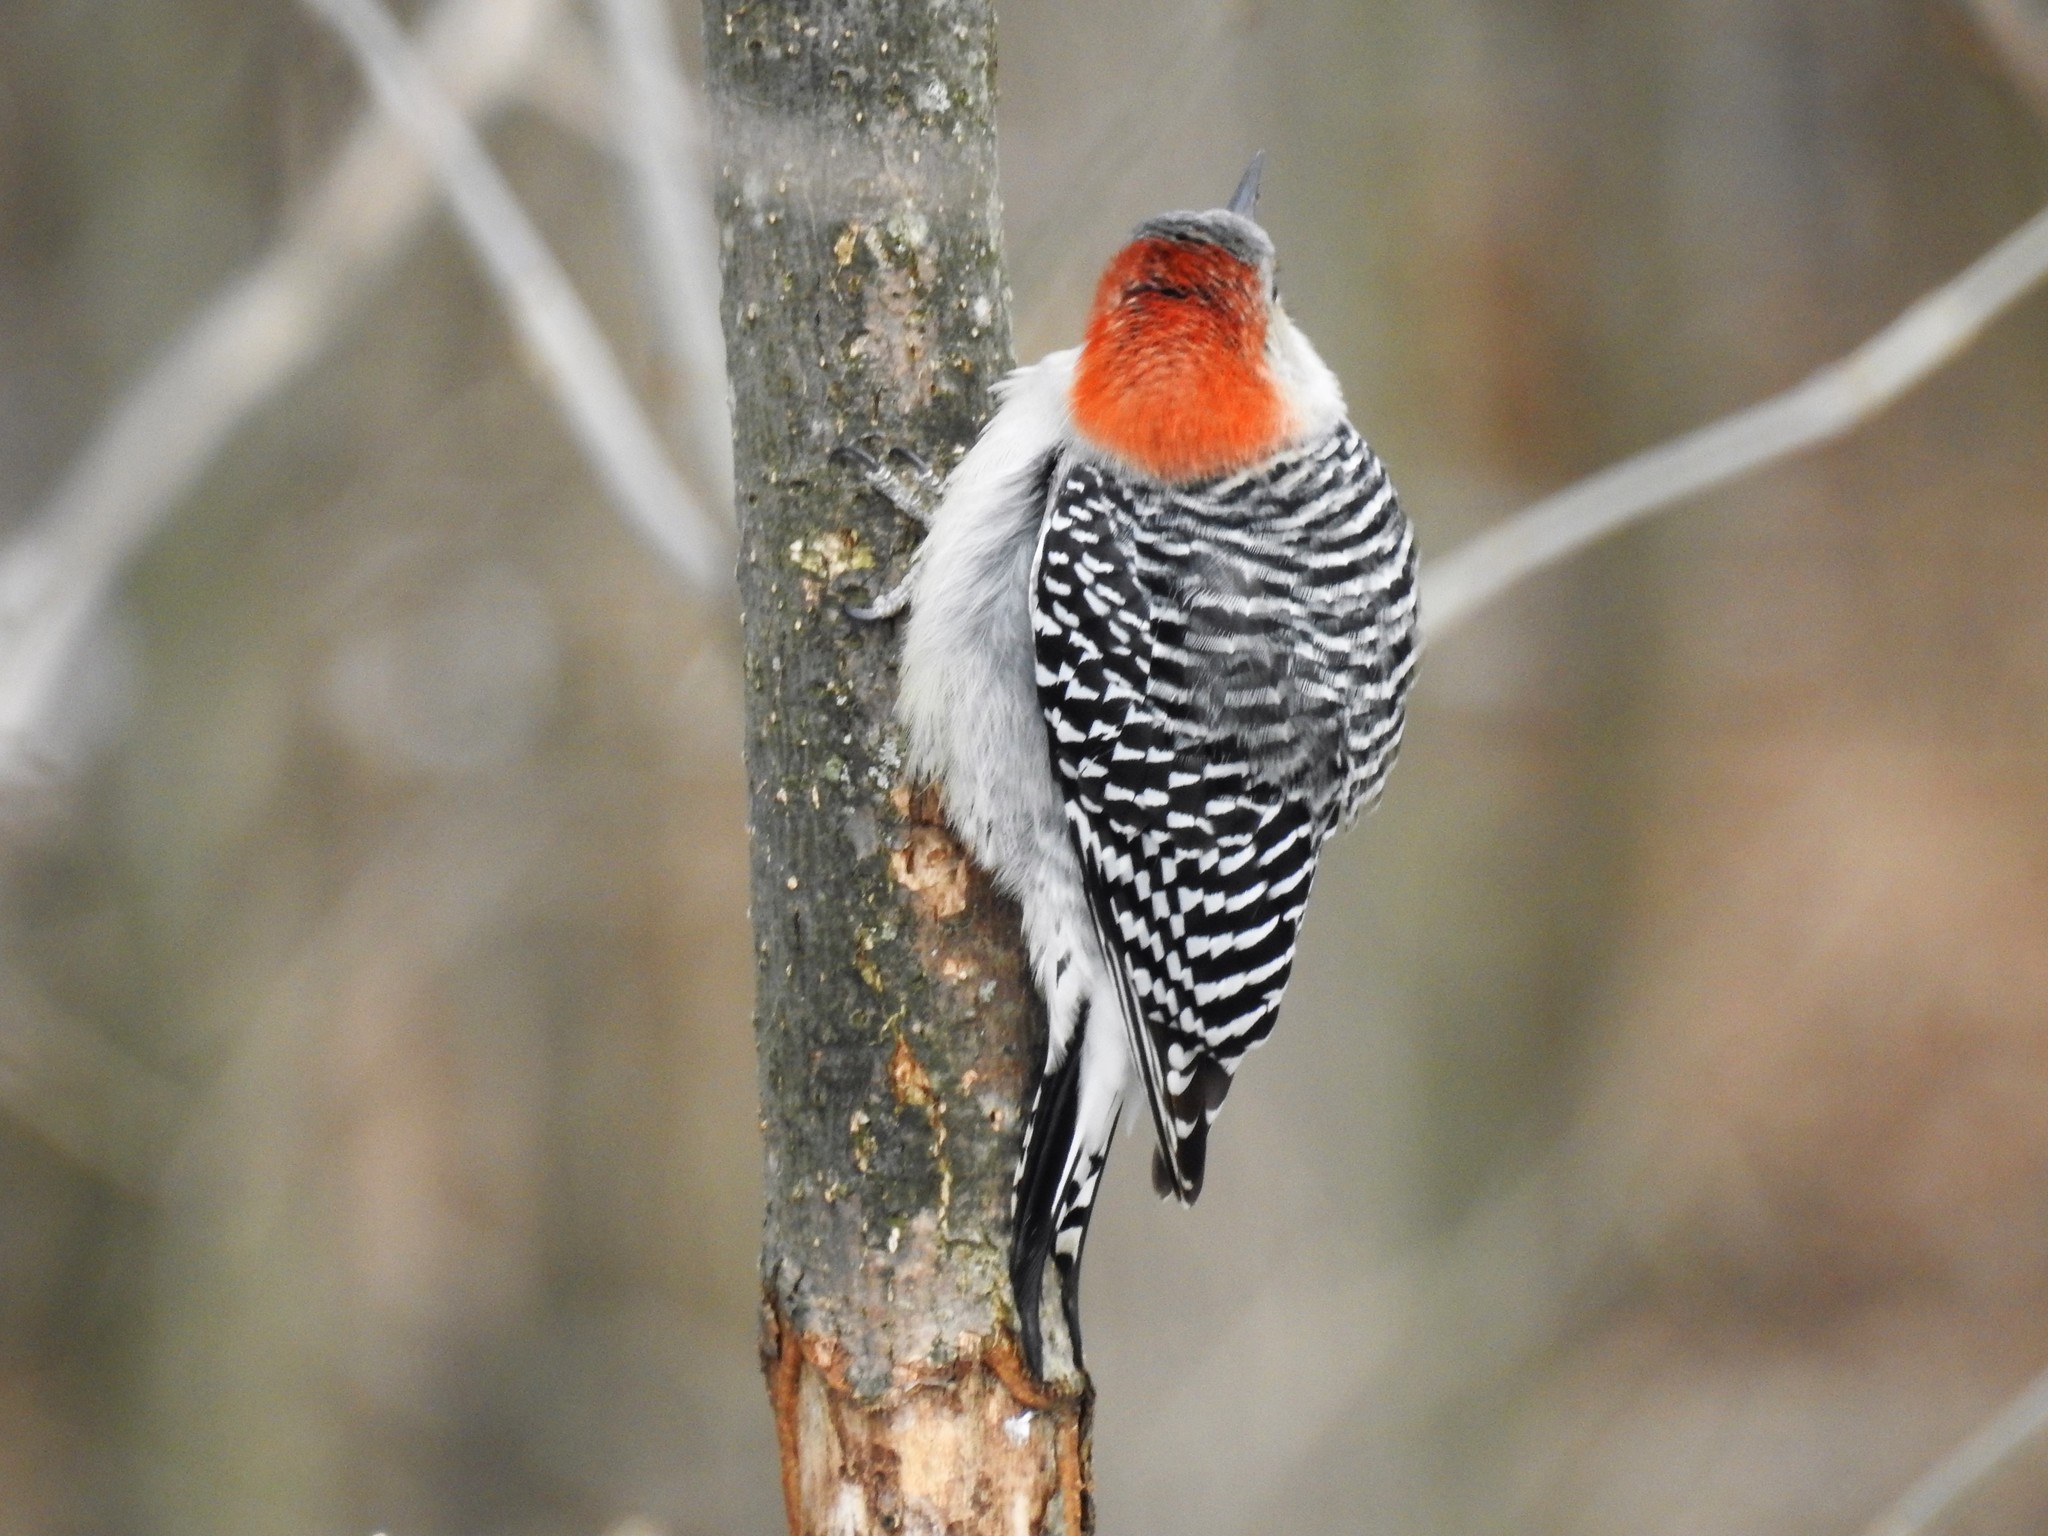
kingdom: Animalia
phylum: Chordata
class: Aves
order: Piciformes
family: Picidae
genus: Melanerpes
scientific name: Melanerpes carolinus
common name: Red-bellied woodpecker
